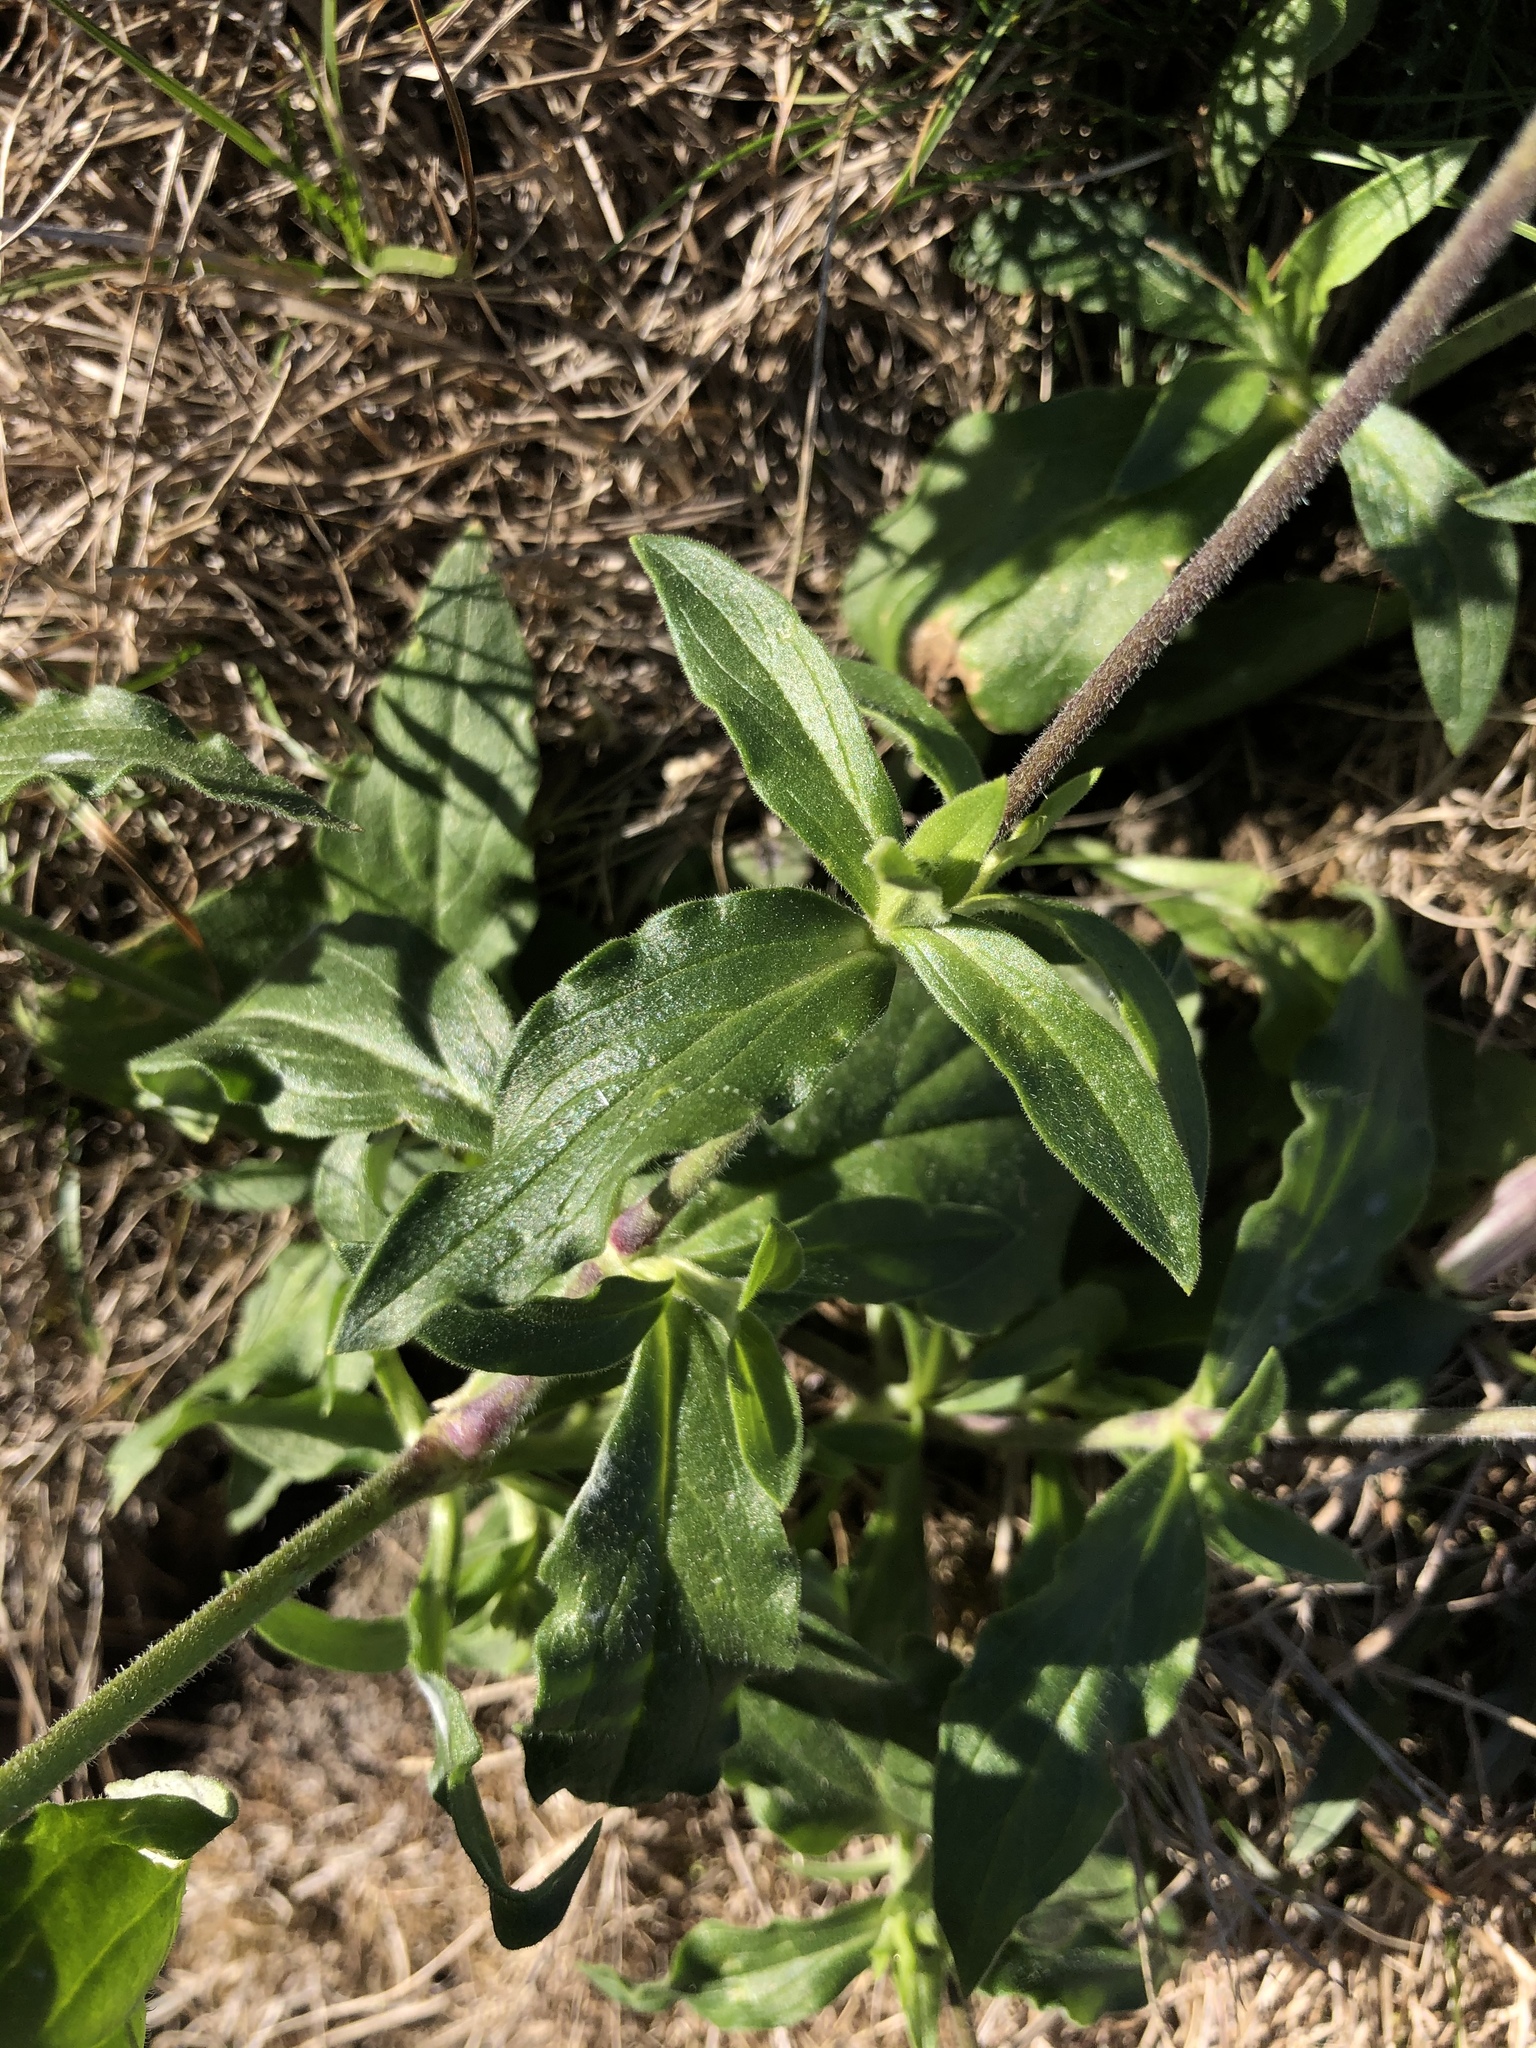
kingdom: Plantae
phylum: Tracheophyta
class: Magnoliopsida
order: Caryophyllales
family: Caryophyllaceae
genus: Silene
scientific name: Silene latifolia
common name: White campion
